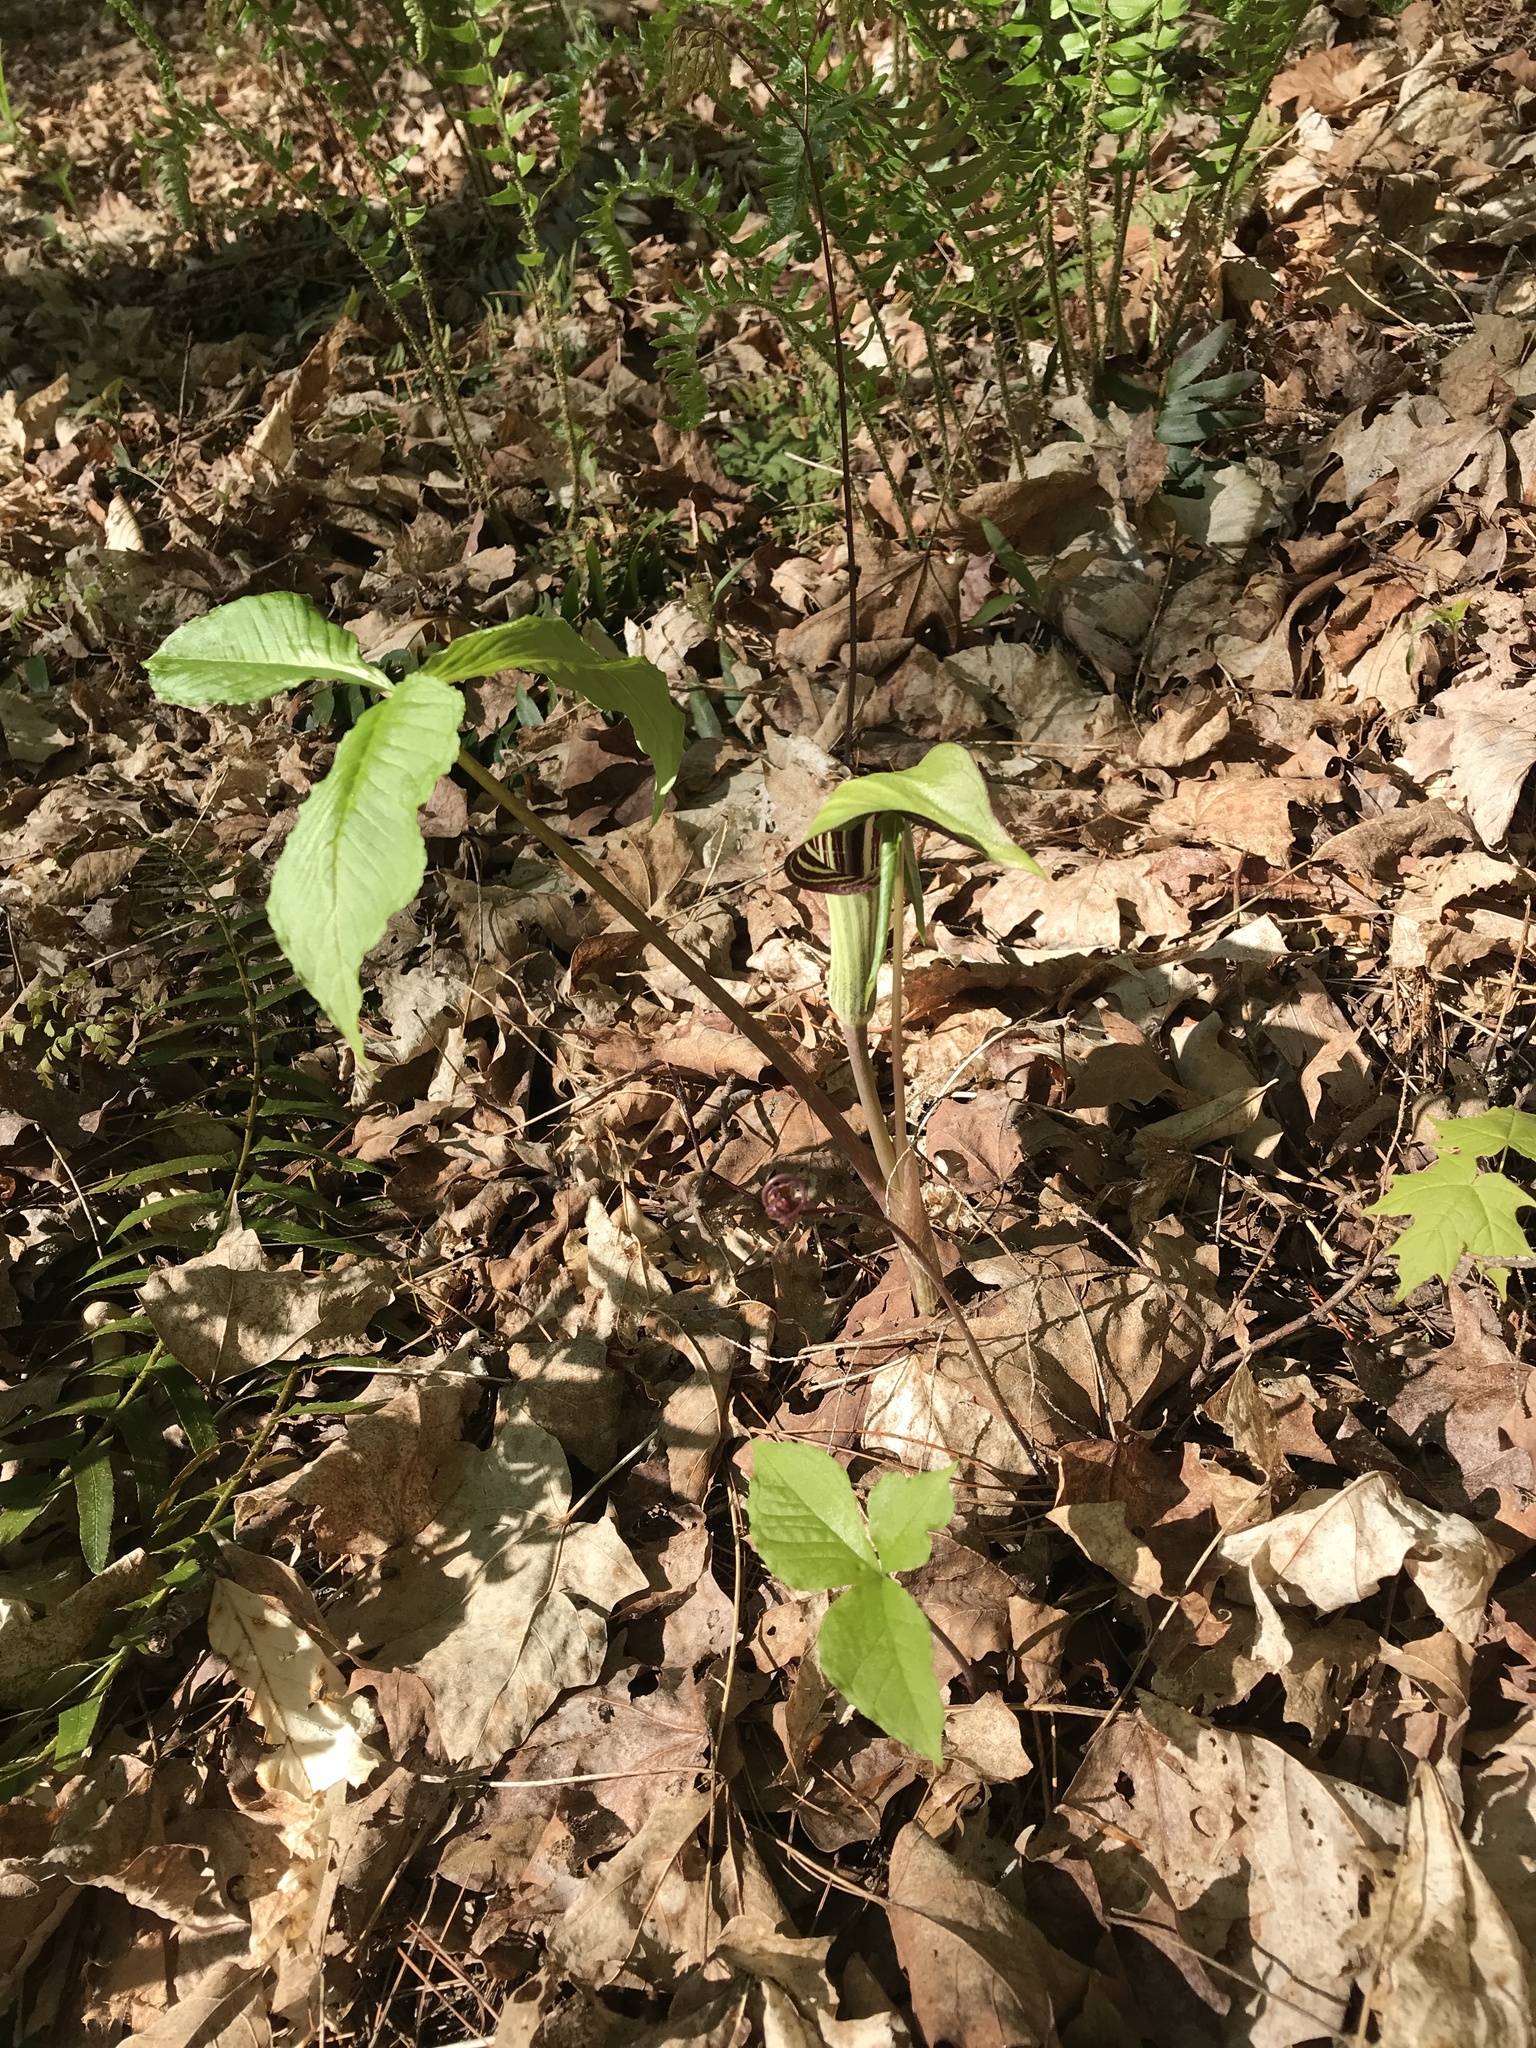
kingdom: Plantae
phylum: Tracheophyta
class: Liliopsida
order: Alismatales
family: Araceae
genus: Arisaema
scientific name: Arisaema triphyllum
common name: Jack-in-the-pulpit
